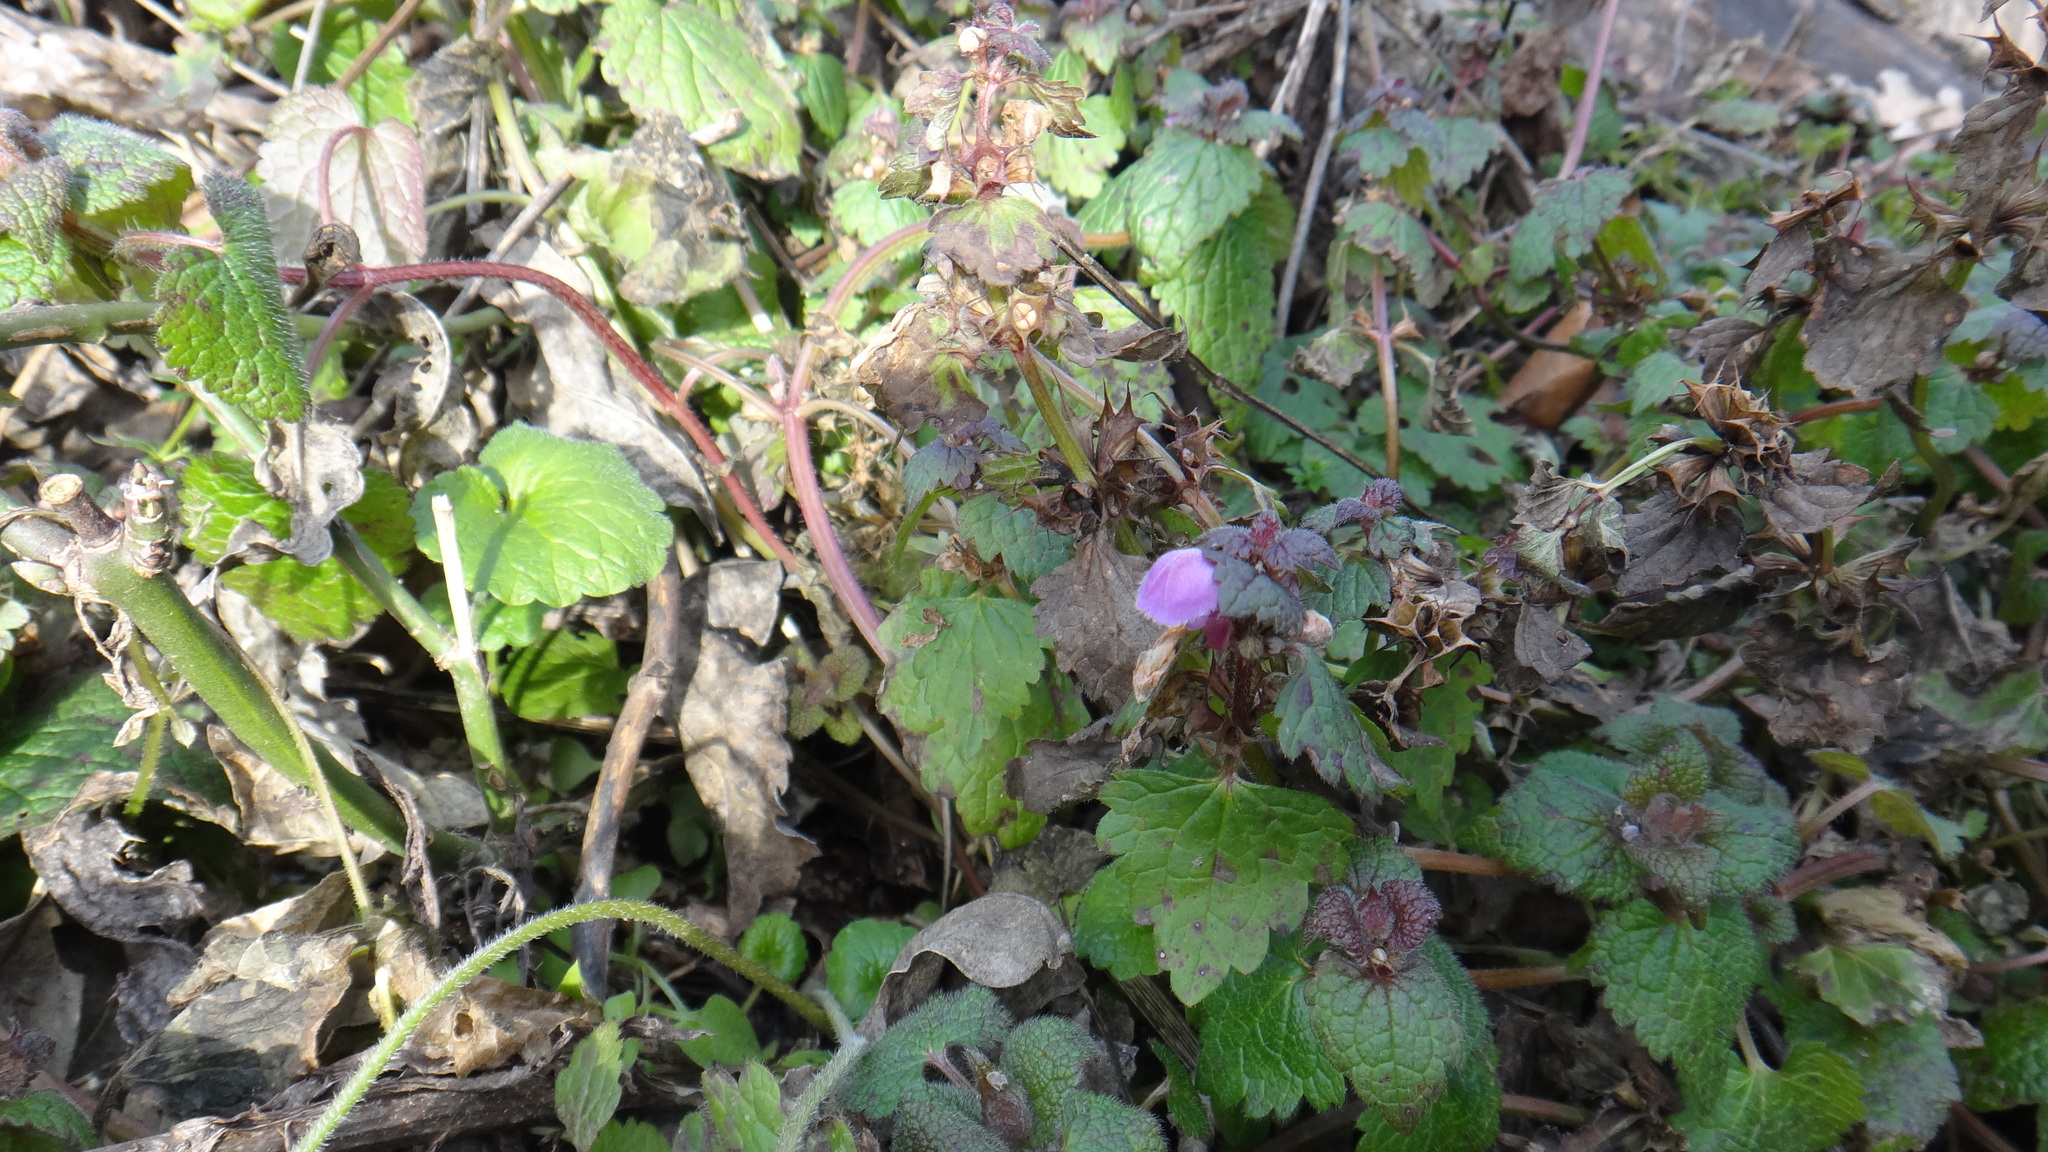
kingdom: Plantae
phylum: Tracheophyta
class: Magnoliopsida
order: Lamiales
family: Lamiaceae
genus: Lamium
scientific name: Lamium maculatum
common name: Spotted dead-nettle
